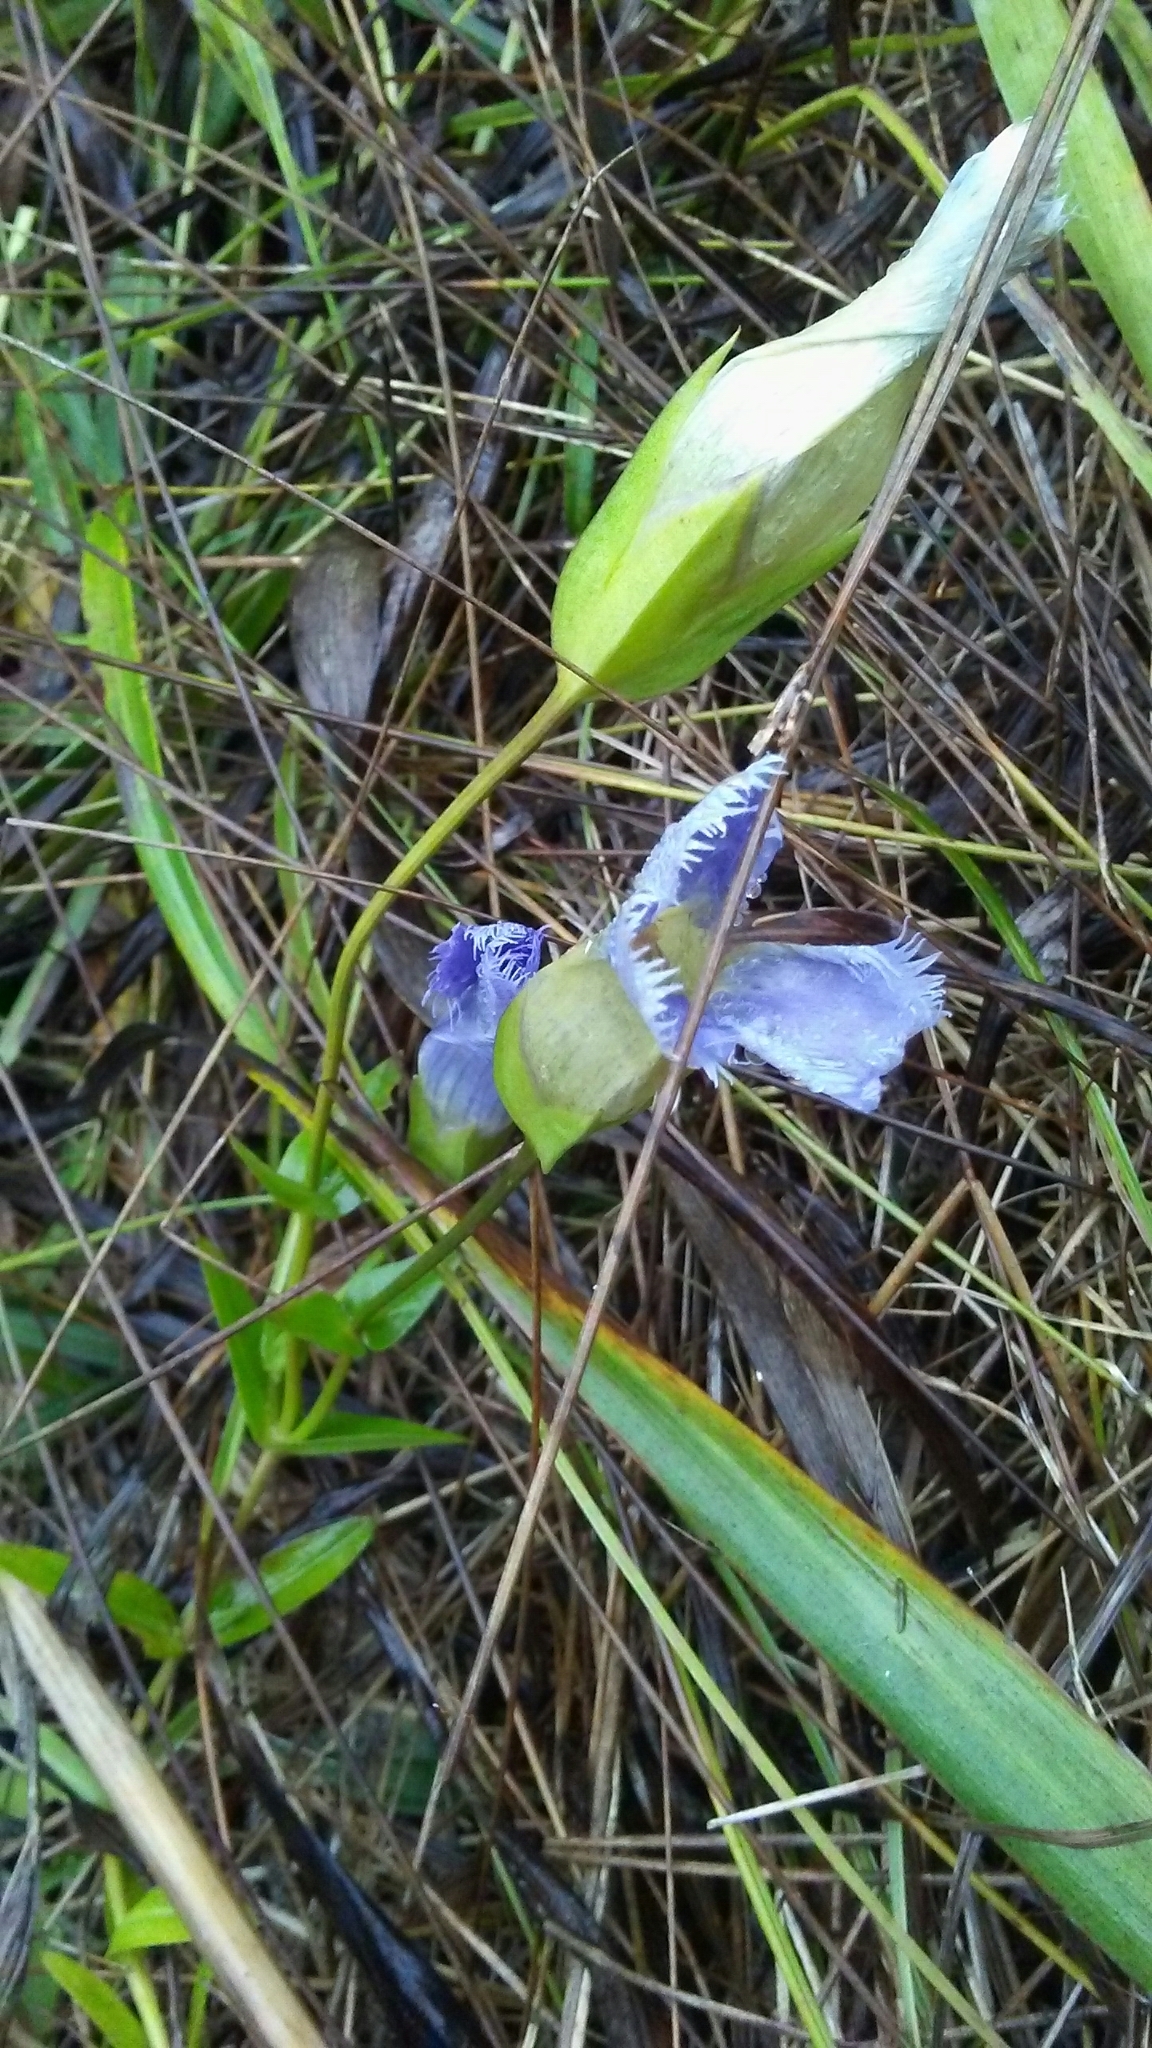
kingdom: Plantae
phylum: Tracheophyta
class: Magnoliopsida
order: Gentianales
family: Gentianaceae
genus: Gentianopsis
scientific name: Gentianopsis crinita
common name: Fringed-gentian
